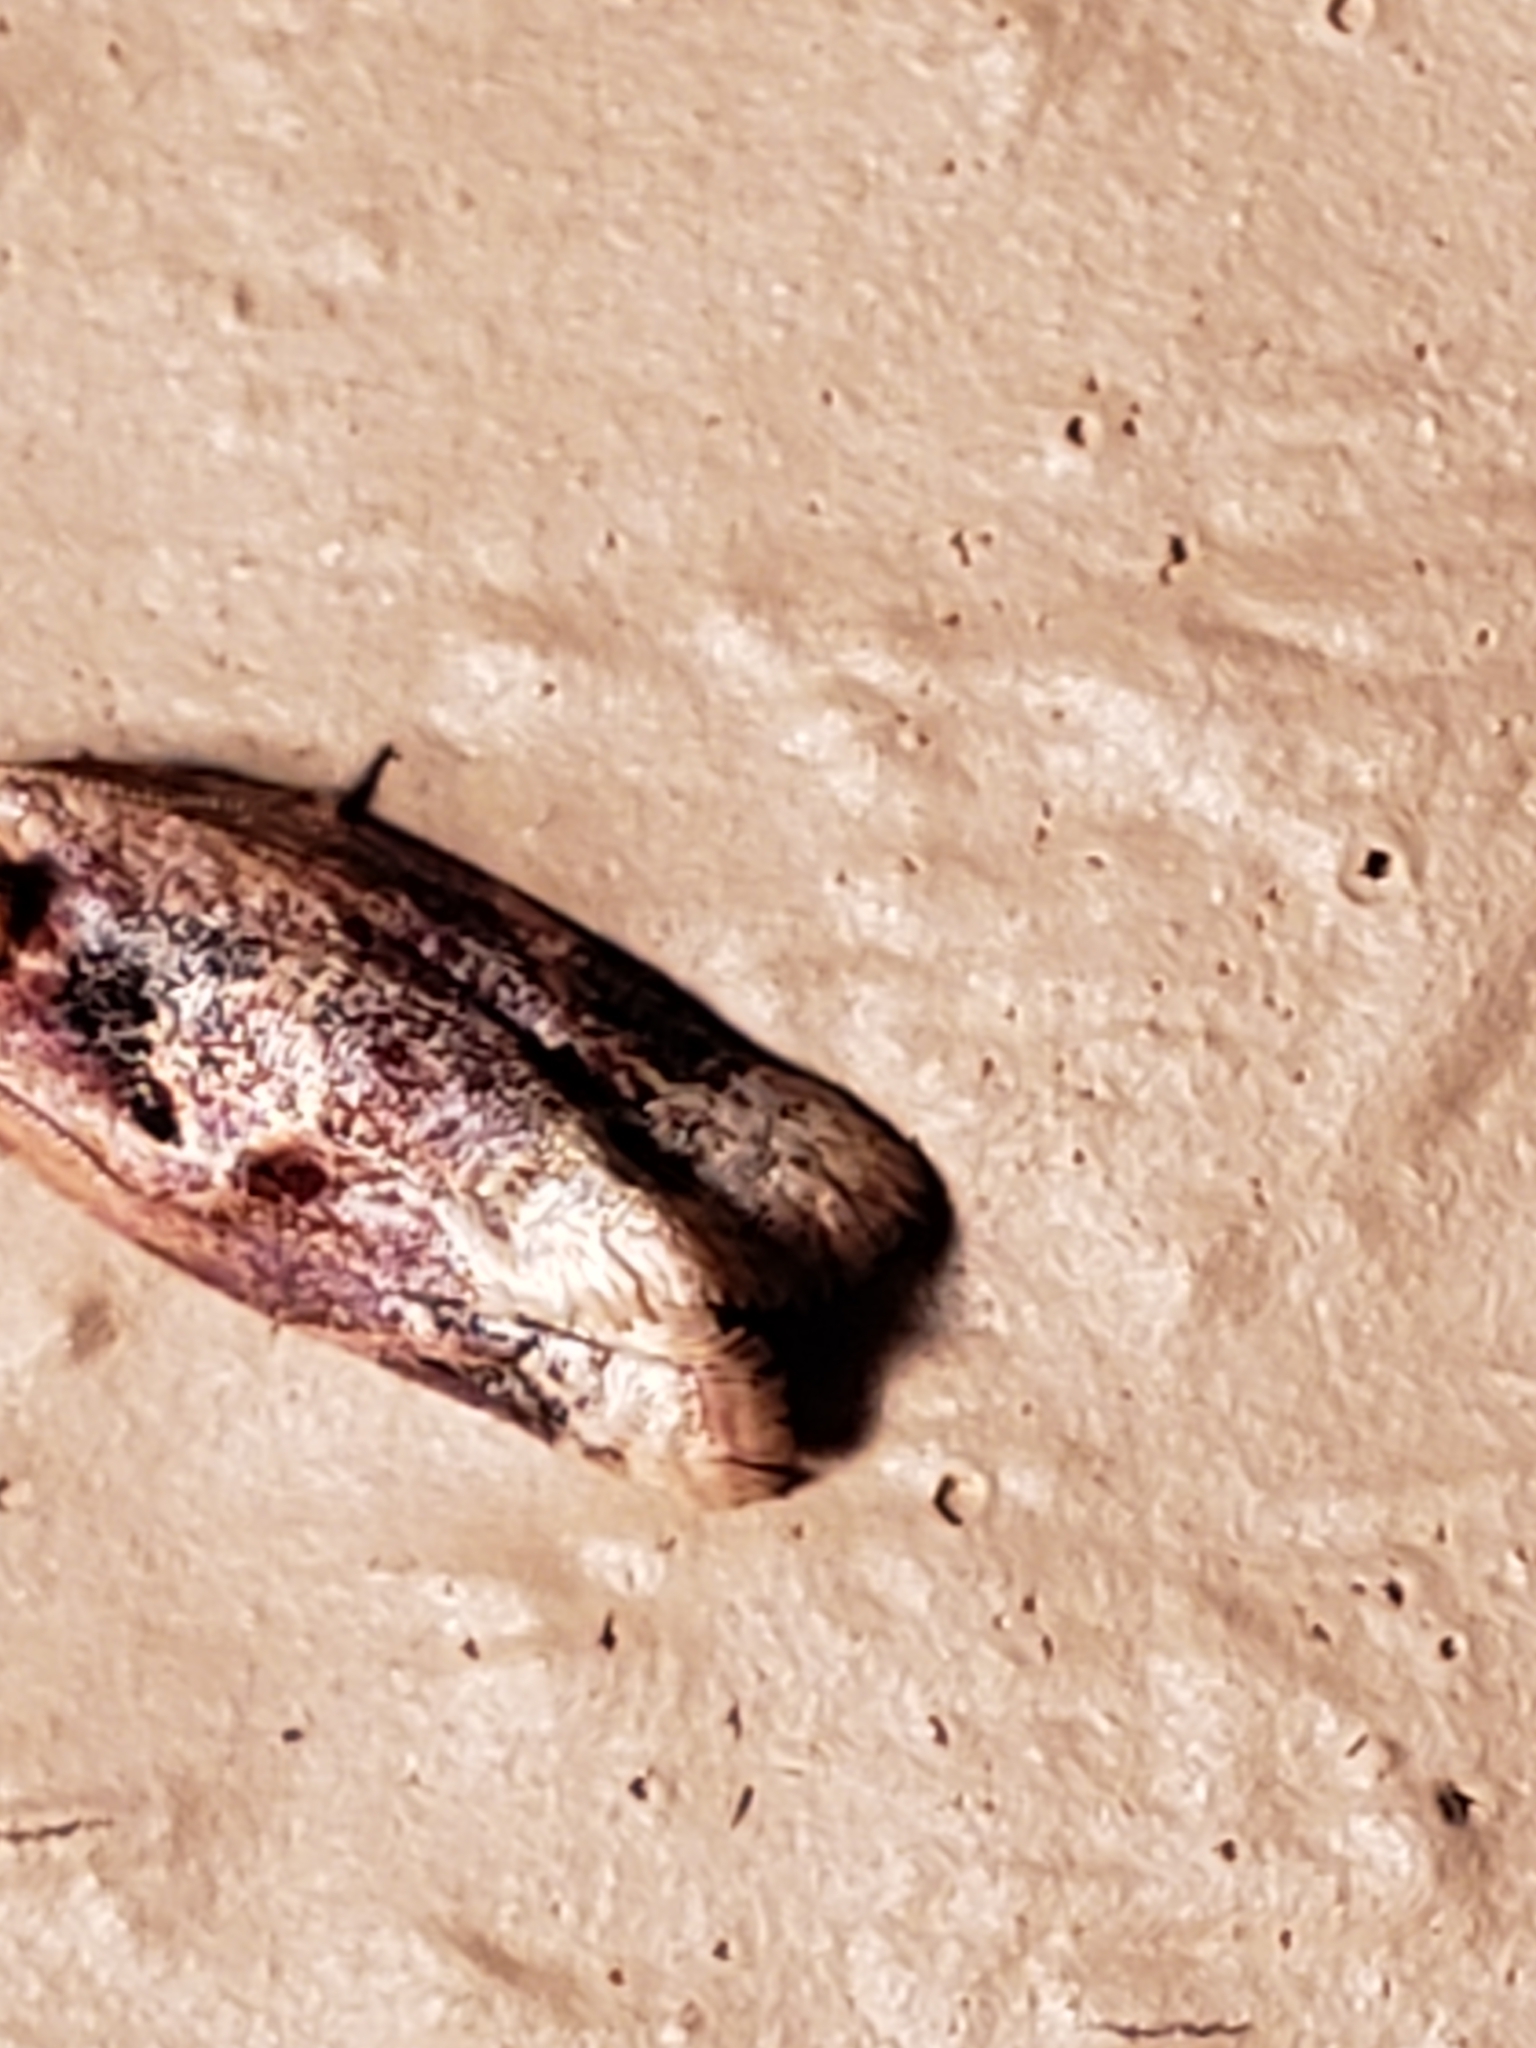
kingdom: Animalia
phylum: Arthropoda
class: Insecta
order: Lepidoptera
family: Tortricidae
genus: Argyrotaenia
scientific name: Argyrotaenia velutinana
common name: Red-banded leafroller moth
